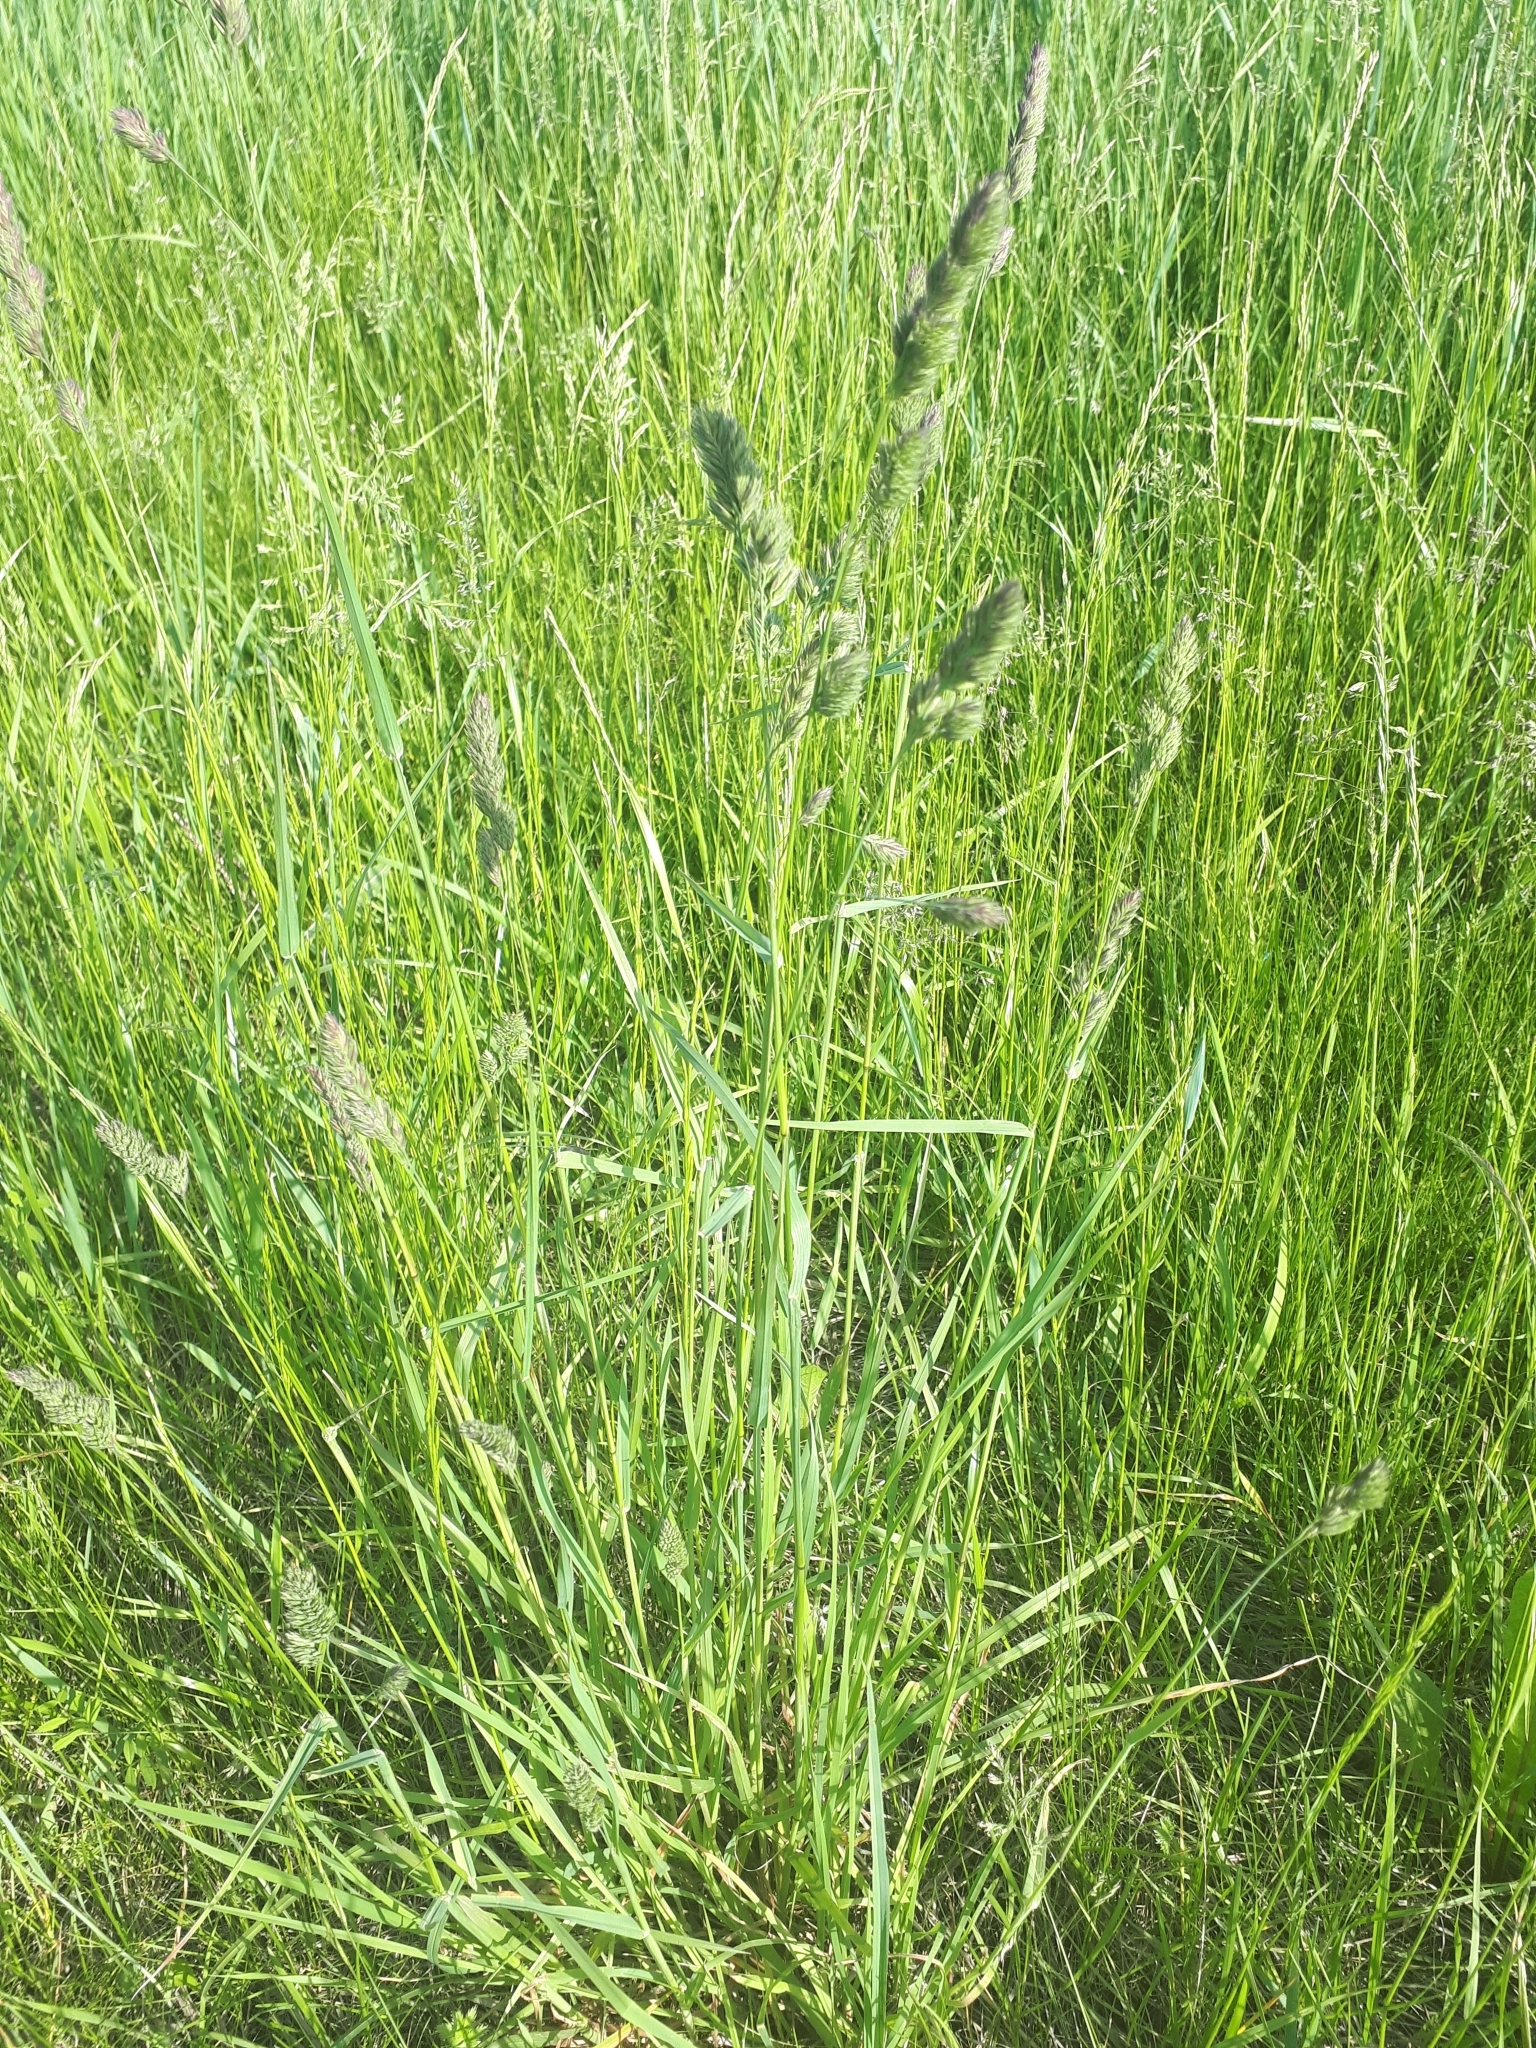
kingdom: Plantae
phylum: Tracheophyta
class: Liliopsida
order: Poales
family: Poaceae
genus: Dactylis
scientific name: Dactylis glomerata
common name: Orchardgrass
